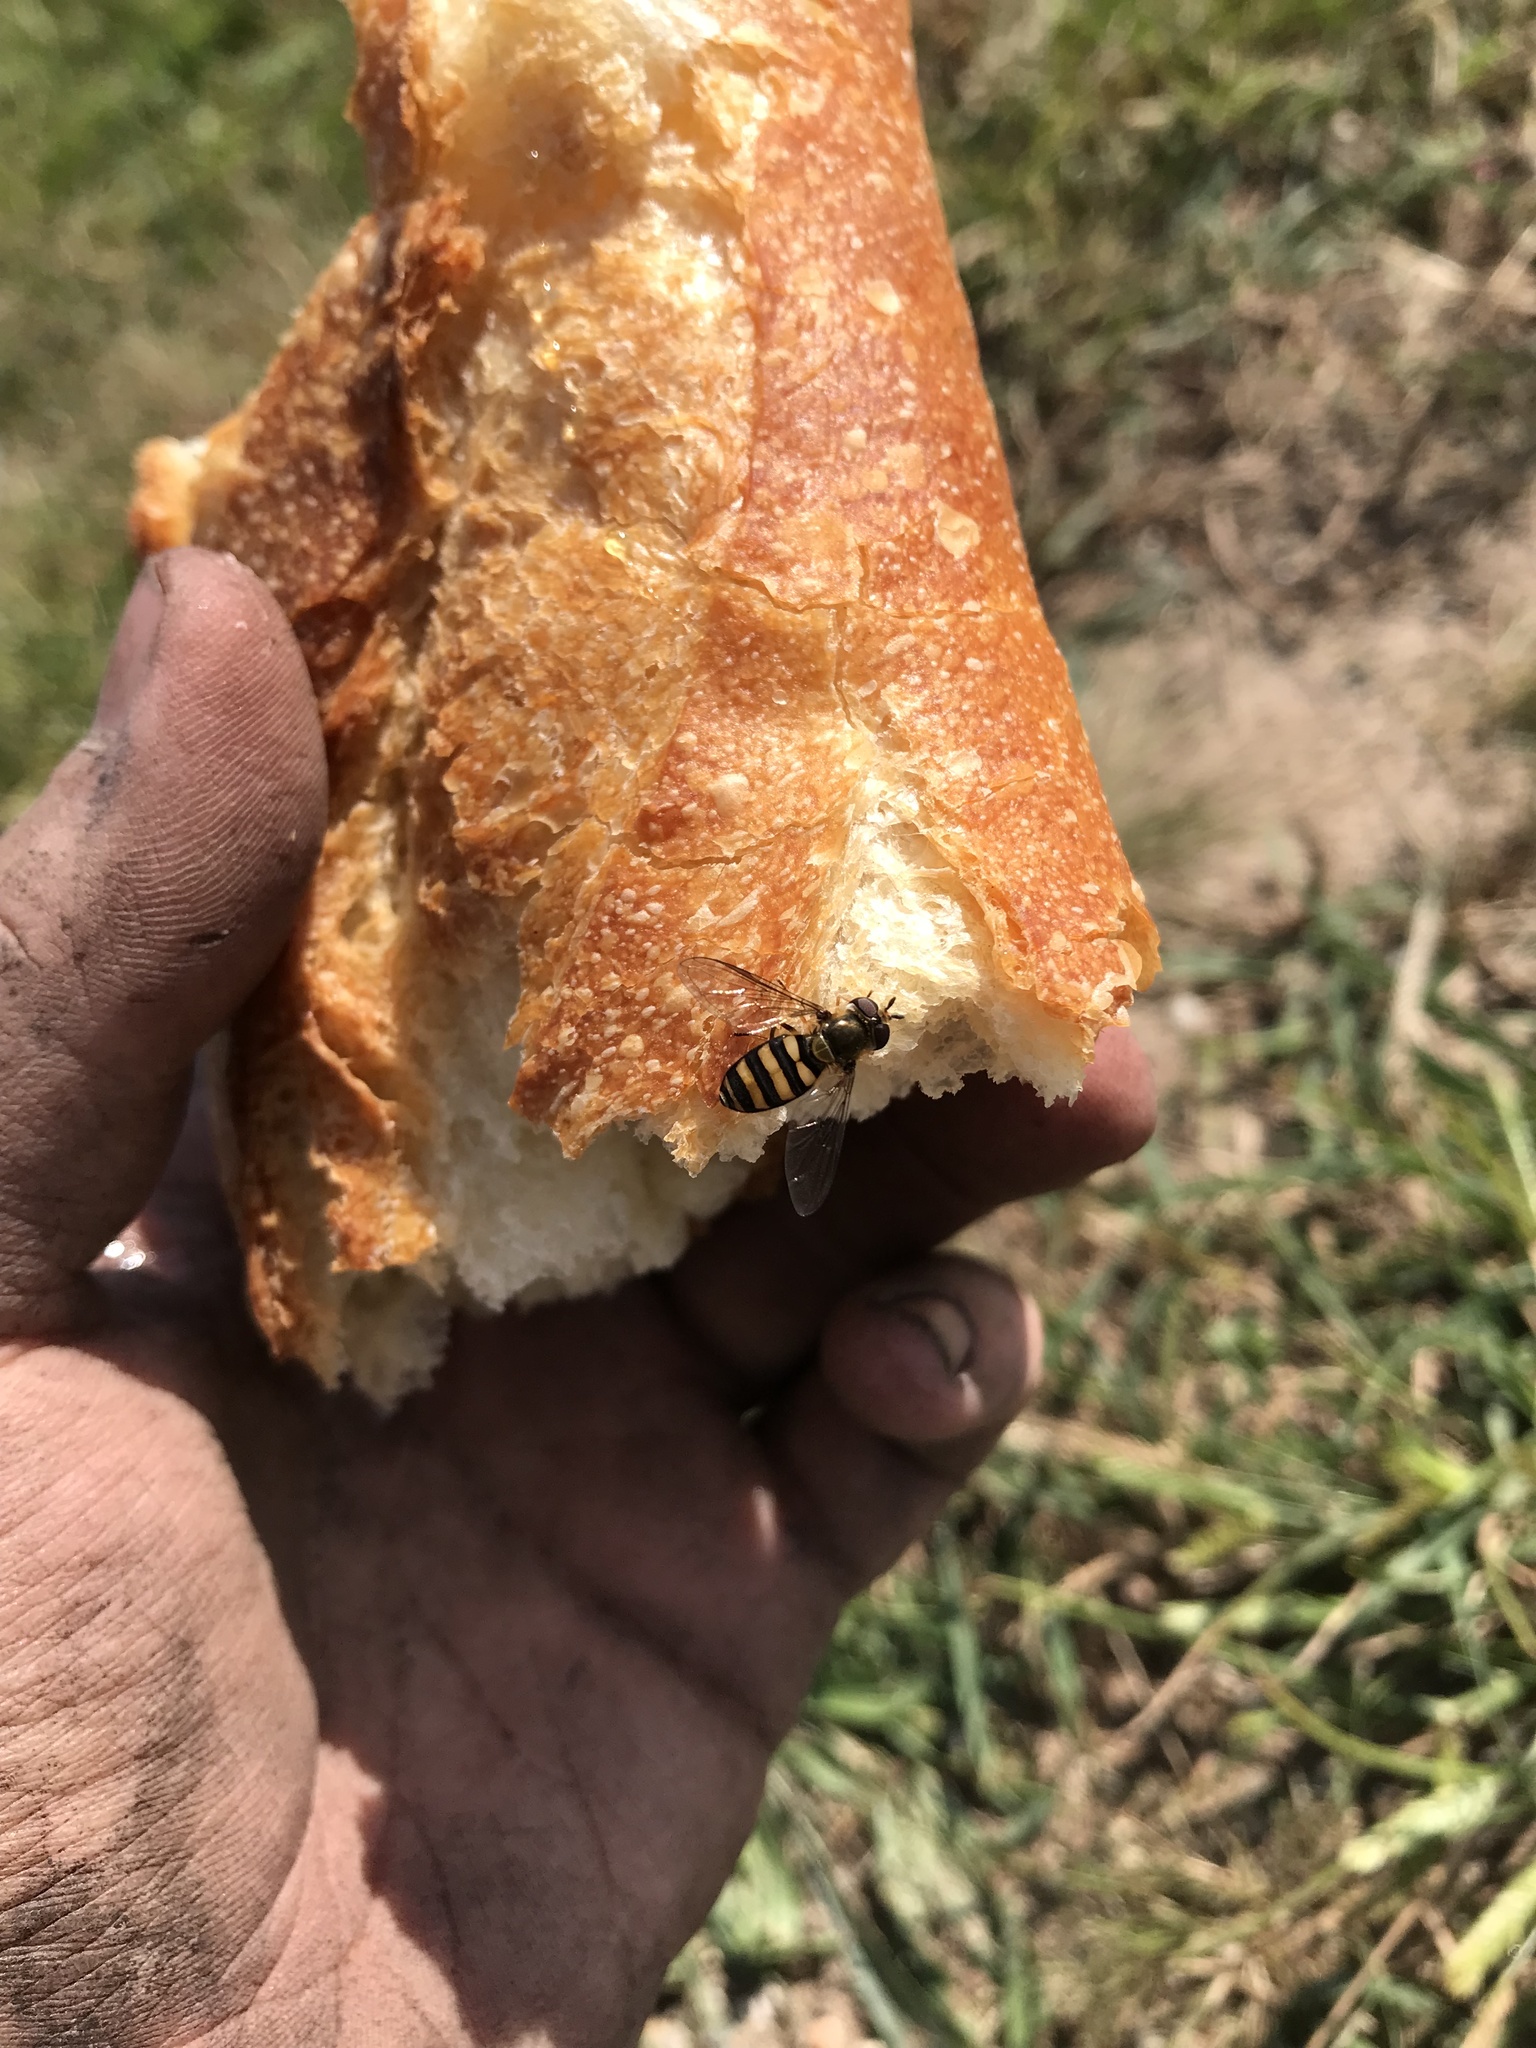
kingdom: Animalia
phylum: Arthropoda
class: Insecta
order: Diptera
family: Syrphidae
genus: Eupeodes
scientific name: Eupeodes
